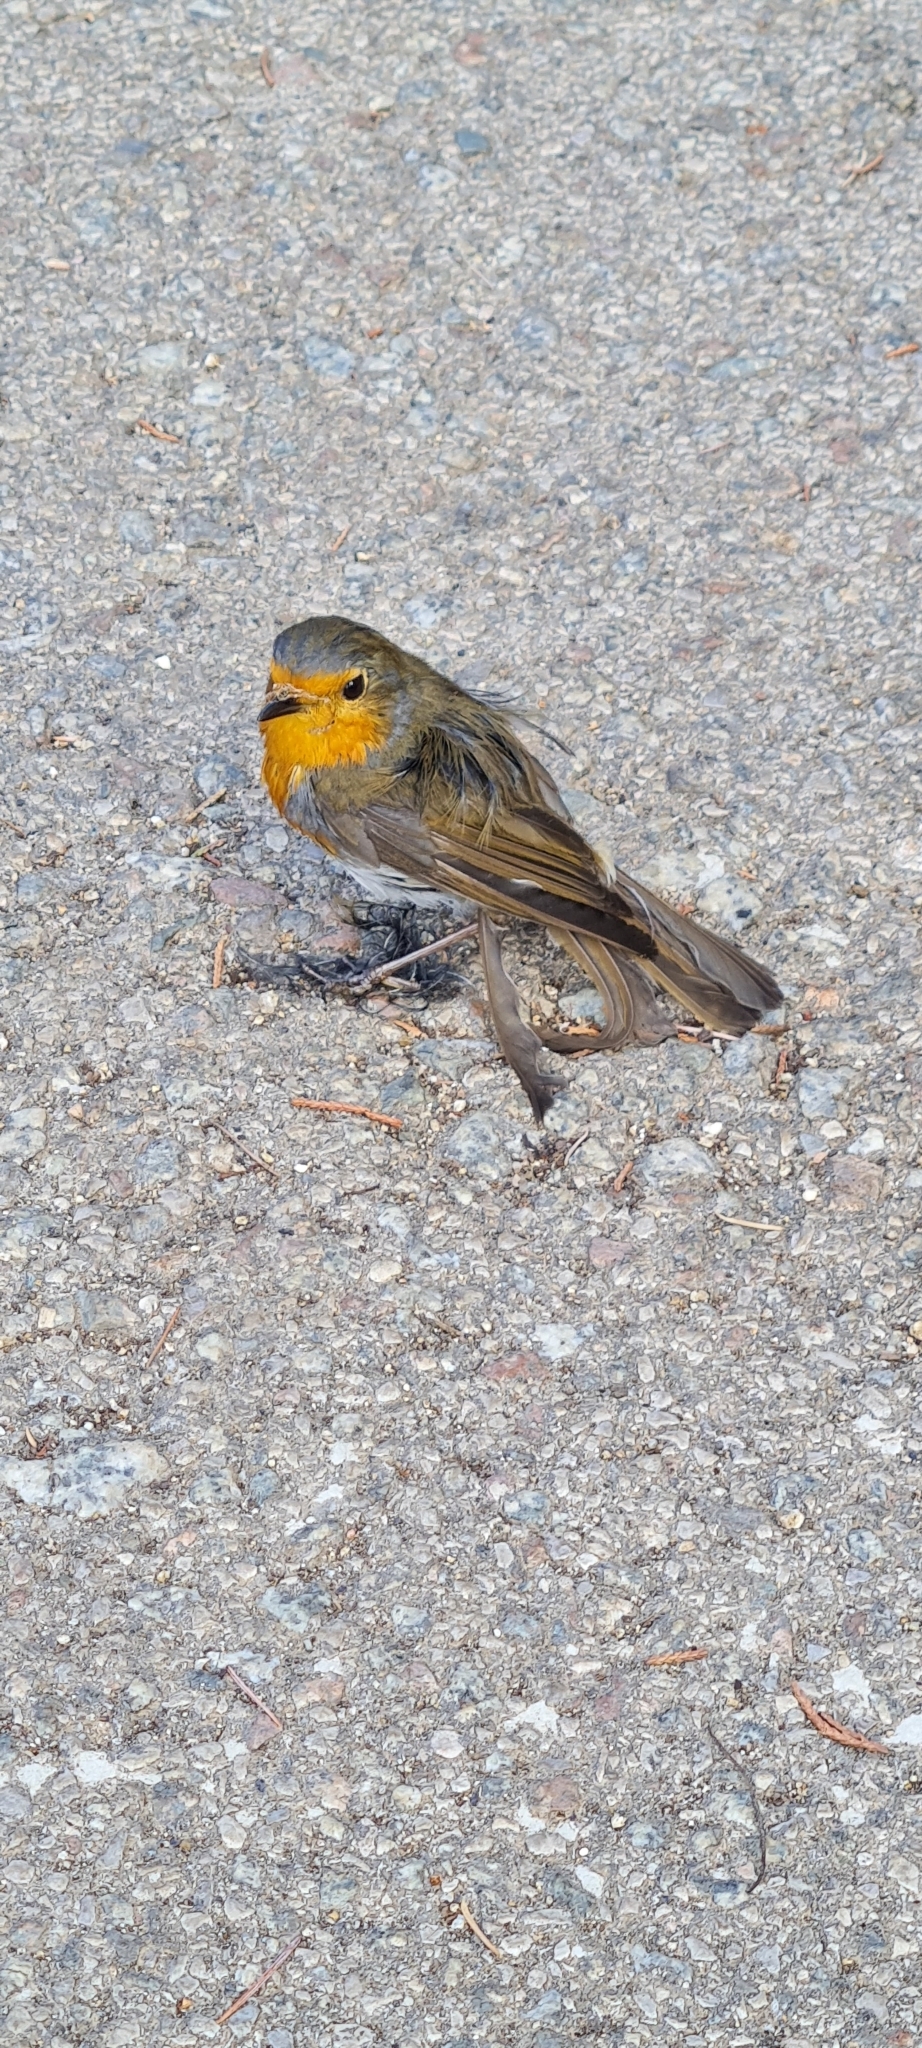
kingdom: Animalia
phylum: Chordata
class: Aves
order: Passeriformes
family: Muscicapidae
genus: Erithacus
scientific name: Erithacus rubecula
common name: European robin
